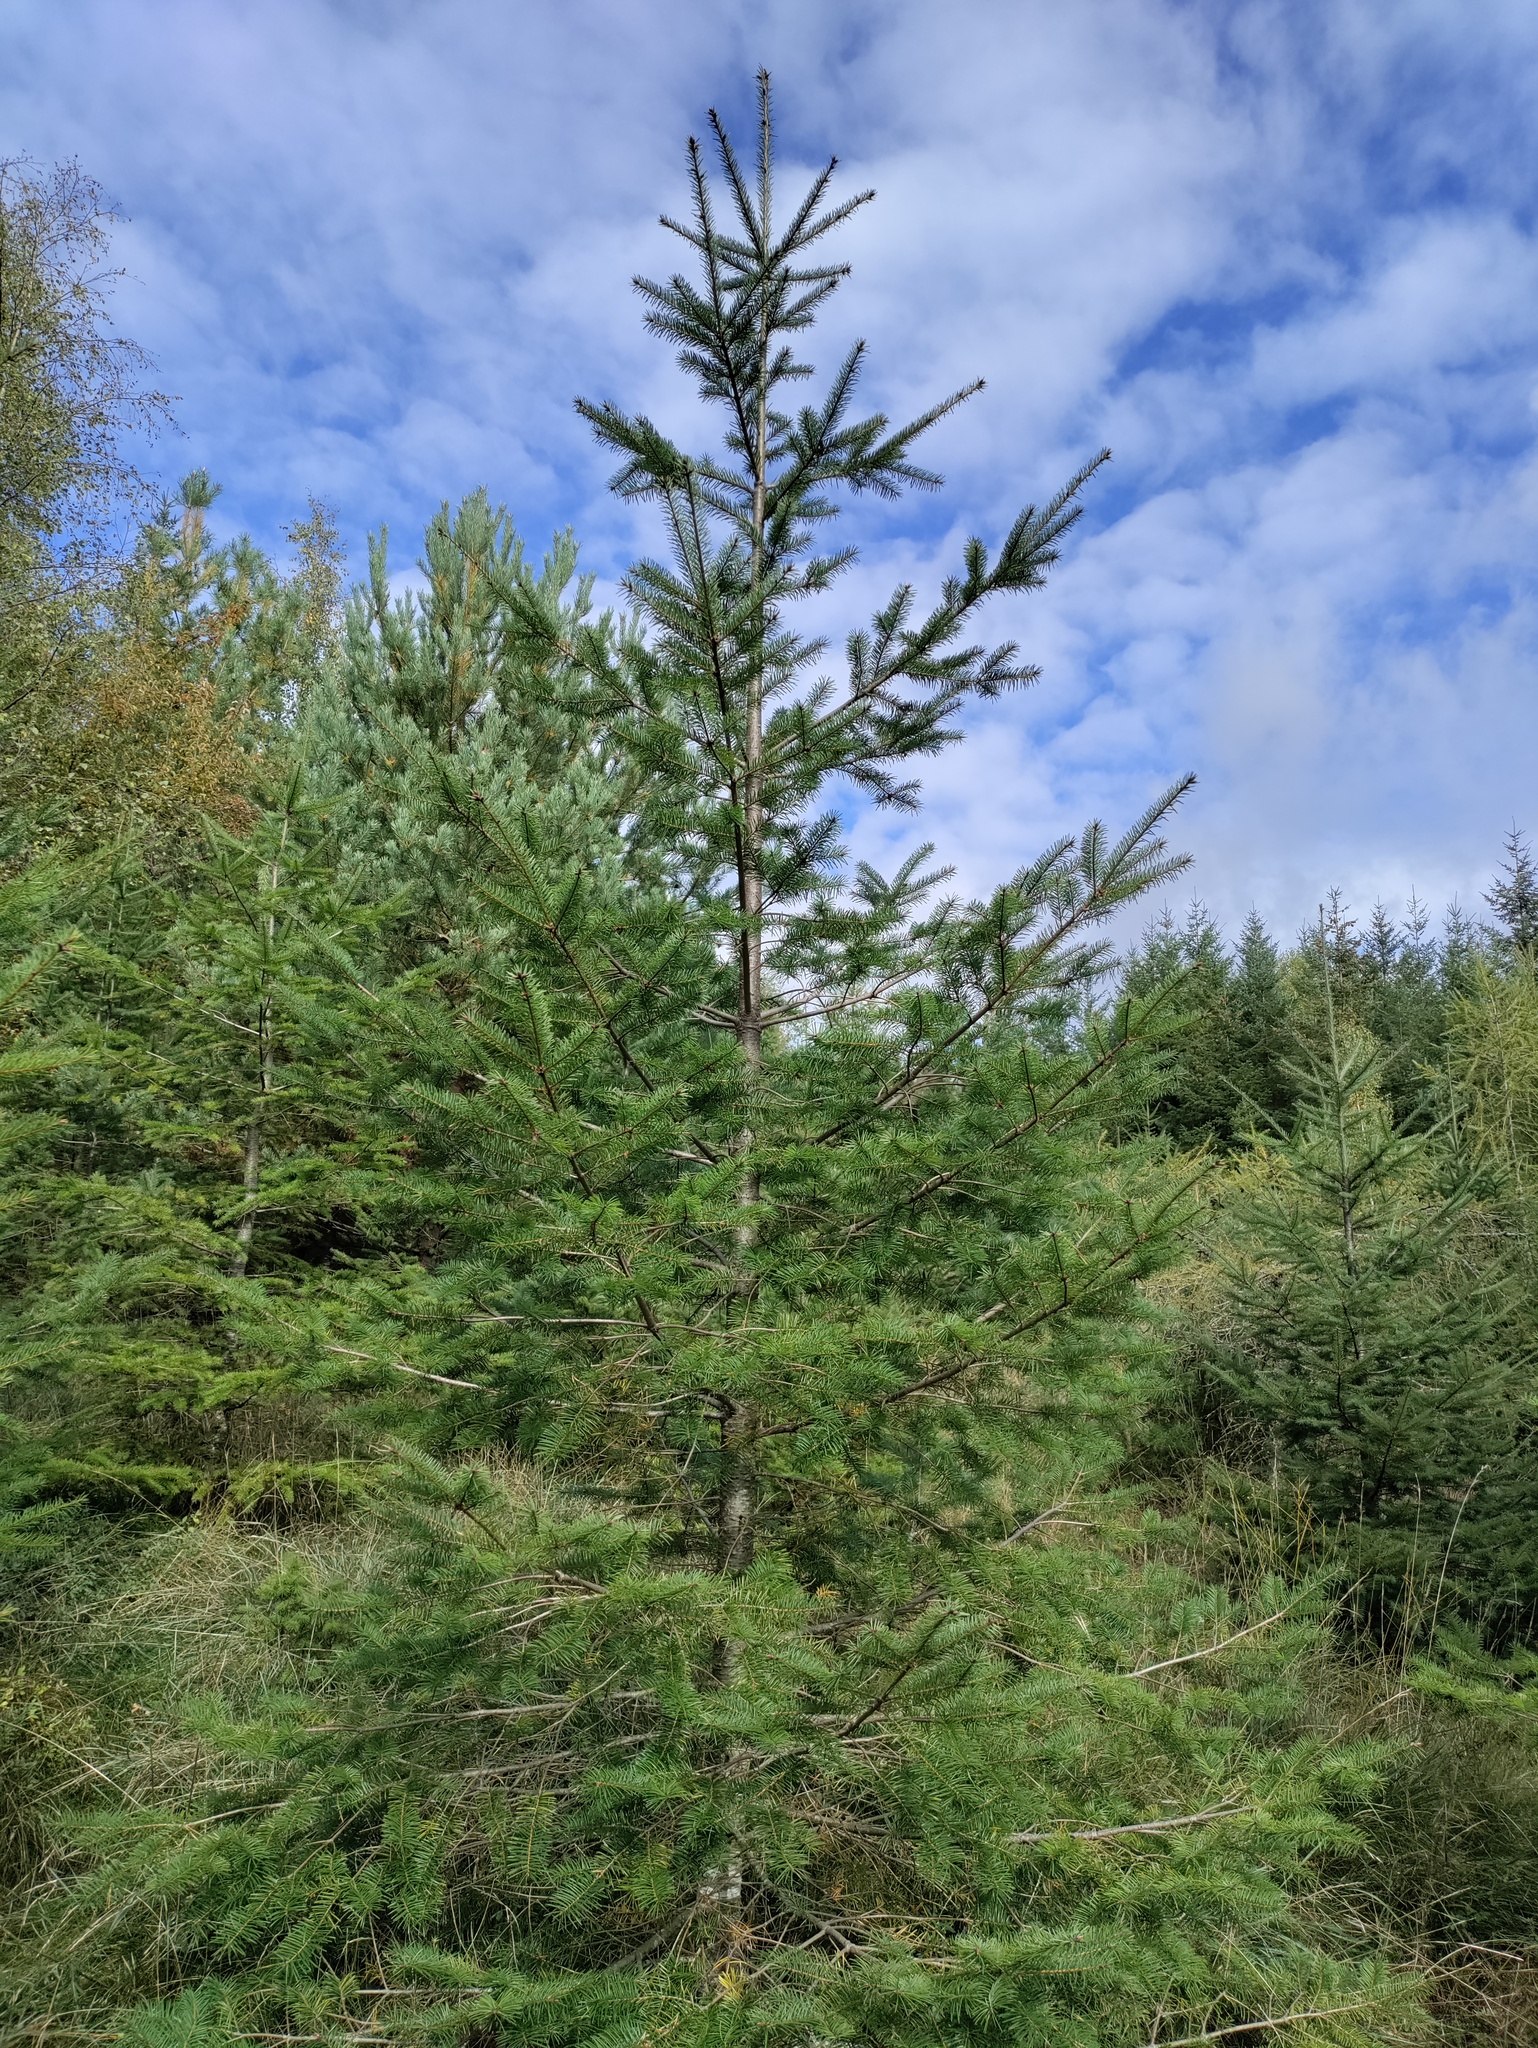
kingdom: Plantae
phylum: Tracheophyta
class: Pinopsida
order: Pinales
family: Pinaceae
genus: Pseudotsuga
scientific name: Pseudotsuga menziesii
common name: Douglas fir
